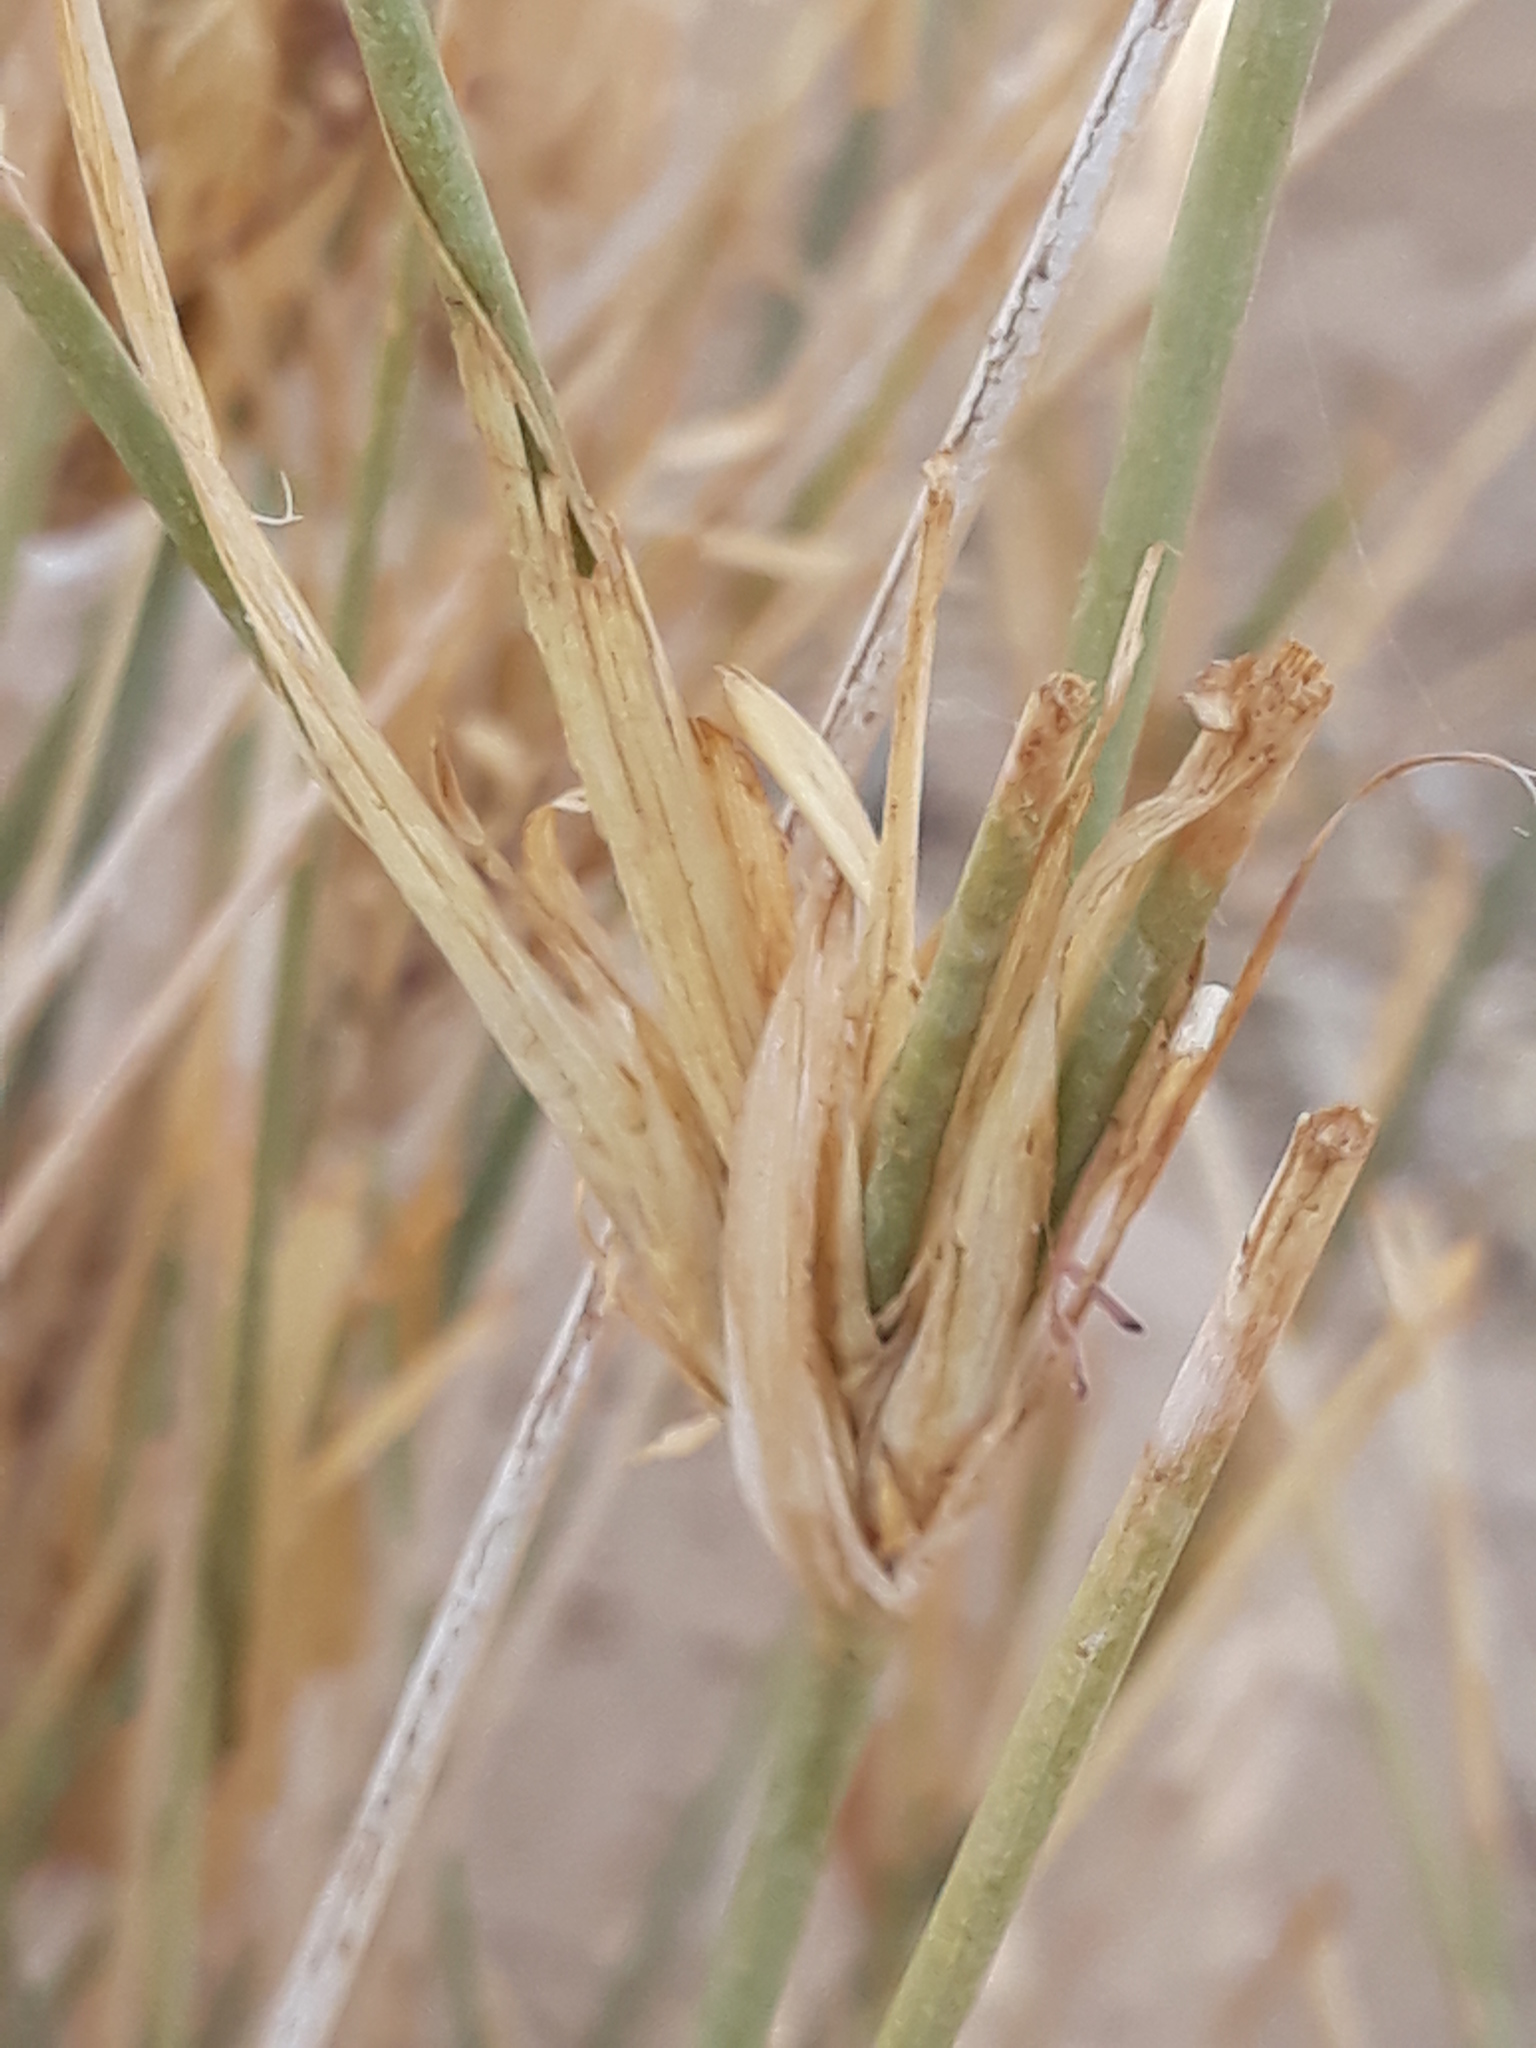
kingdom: Plantae
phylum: Tracheophyta
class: Liliopsida
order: Poales
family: Poaceae
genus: Panicum
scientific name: Panicum turgidum
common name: Desert grass
